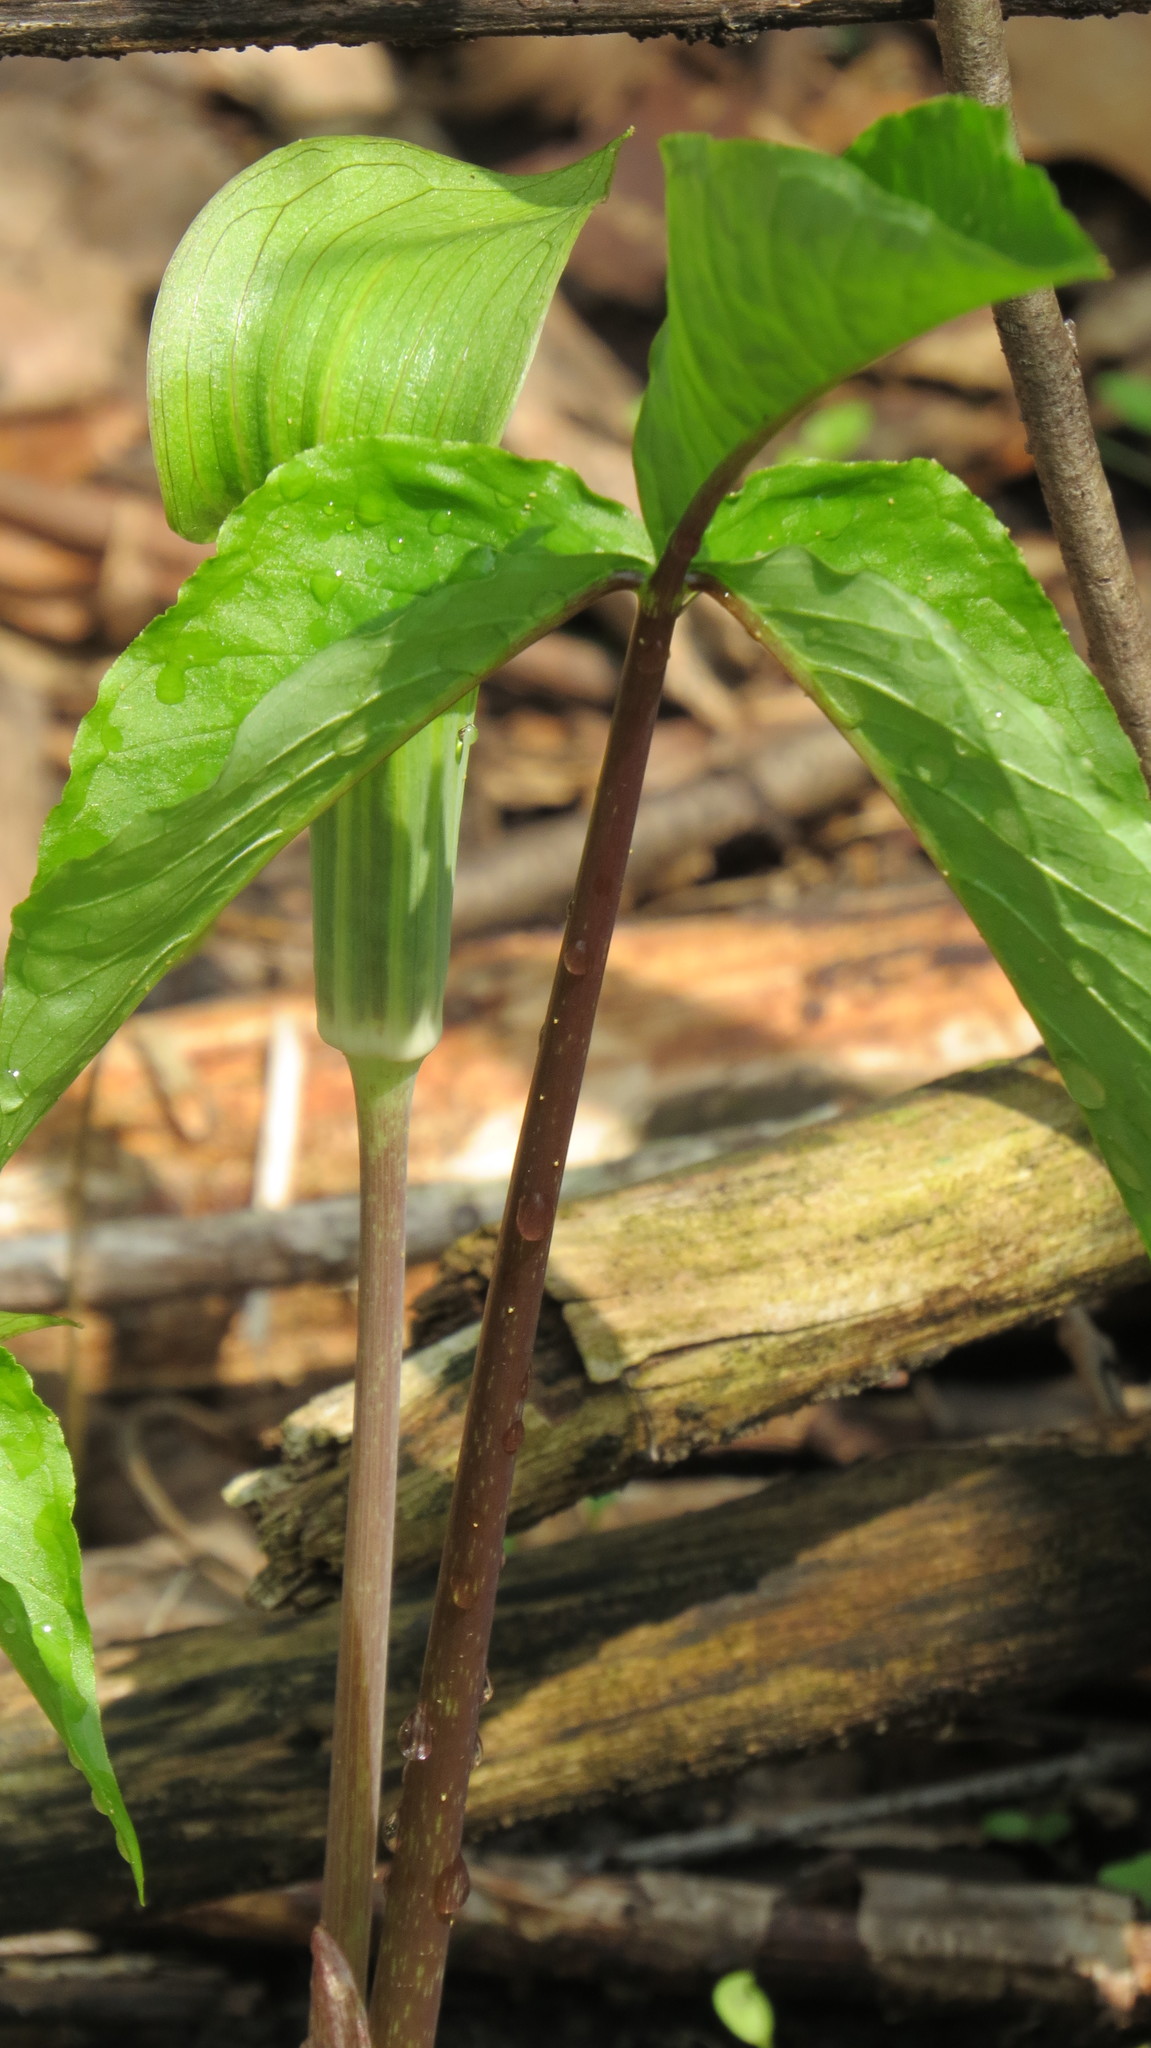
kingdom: Plantae
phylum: Tracheophyta
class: Liliopsida
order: Alismatales
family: Araceae
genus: Arisaema
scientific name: Arisaema triphyllum
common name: Jack-in-the-pulpit
